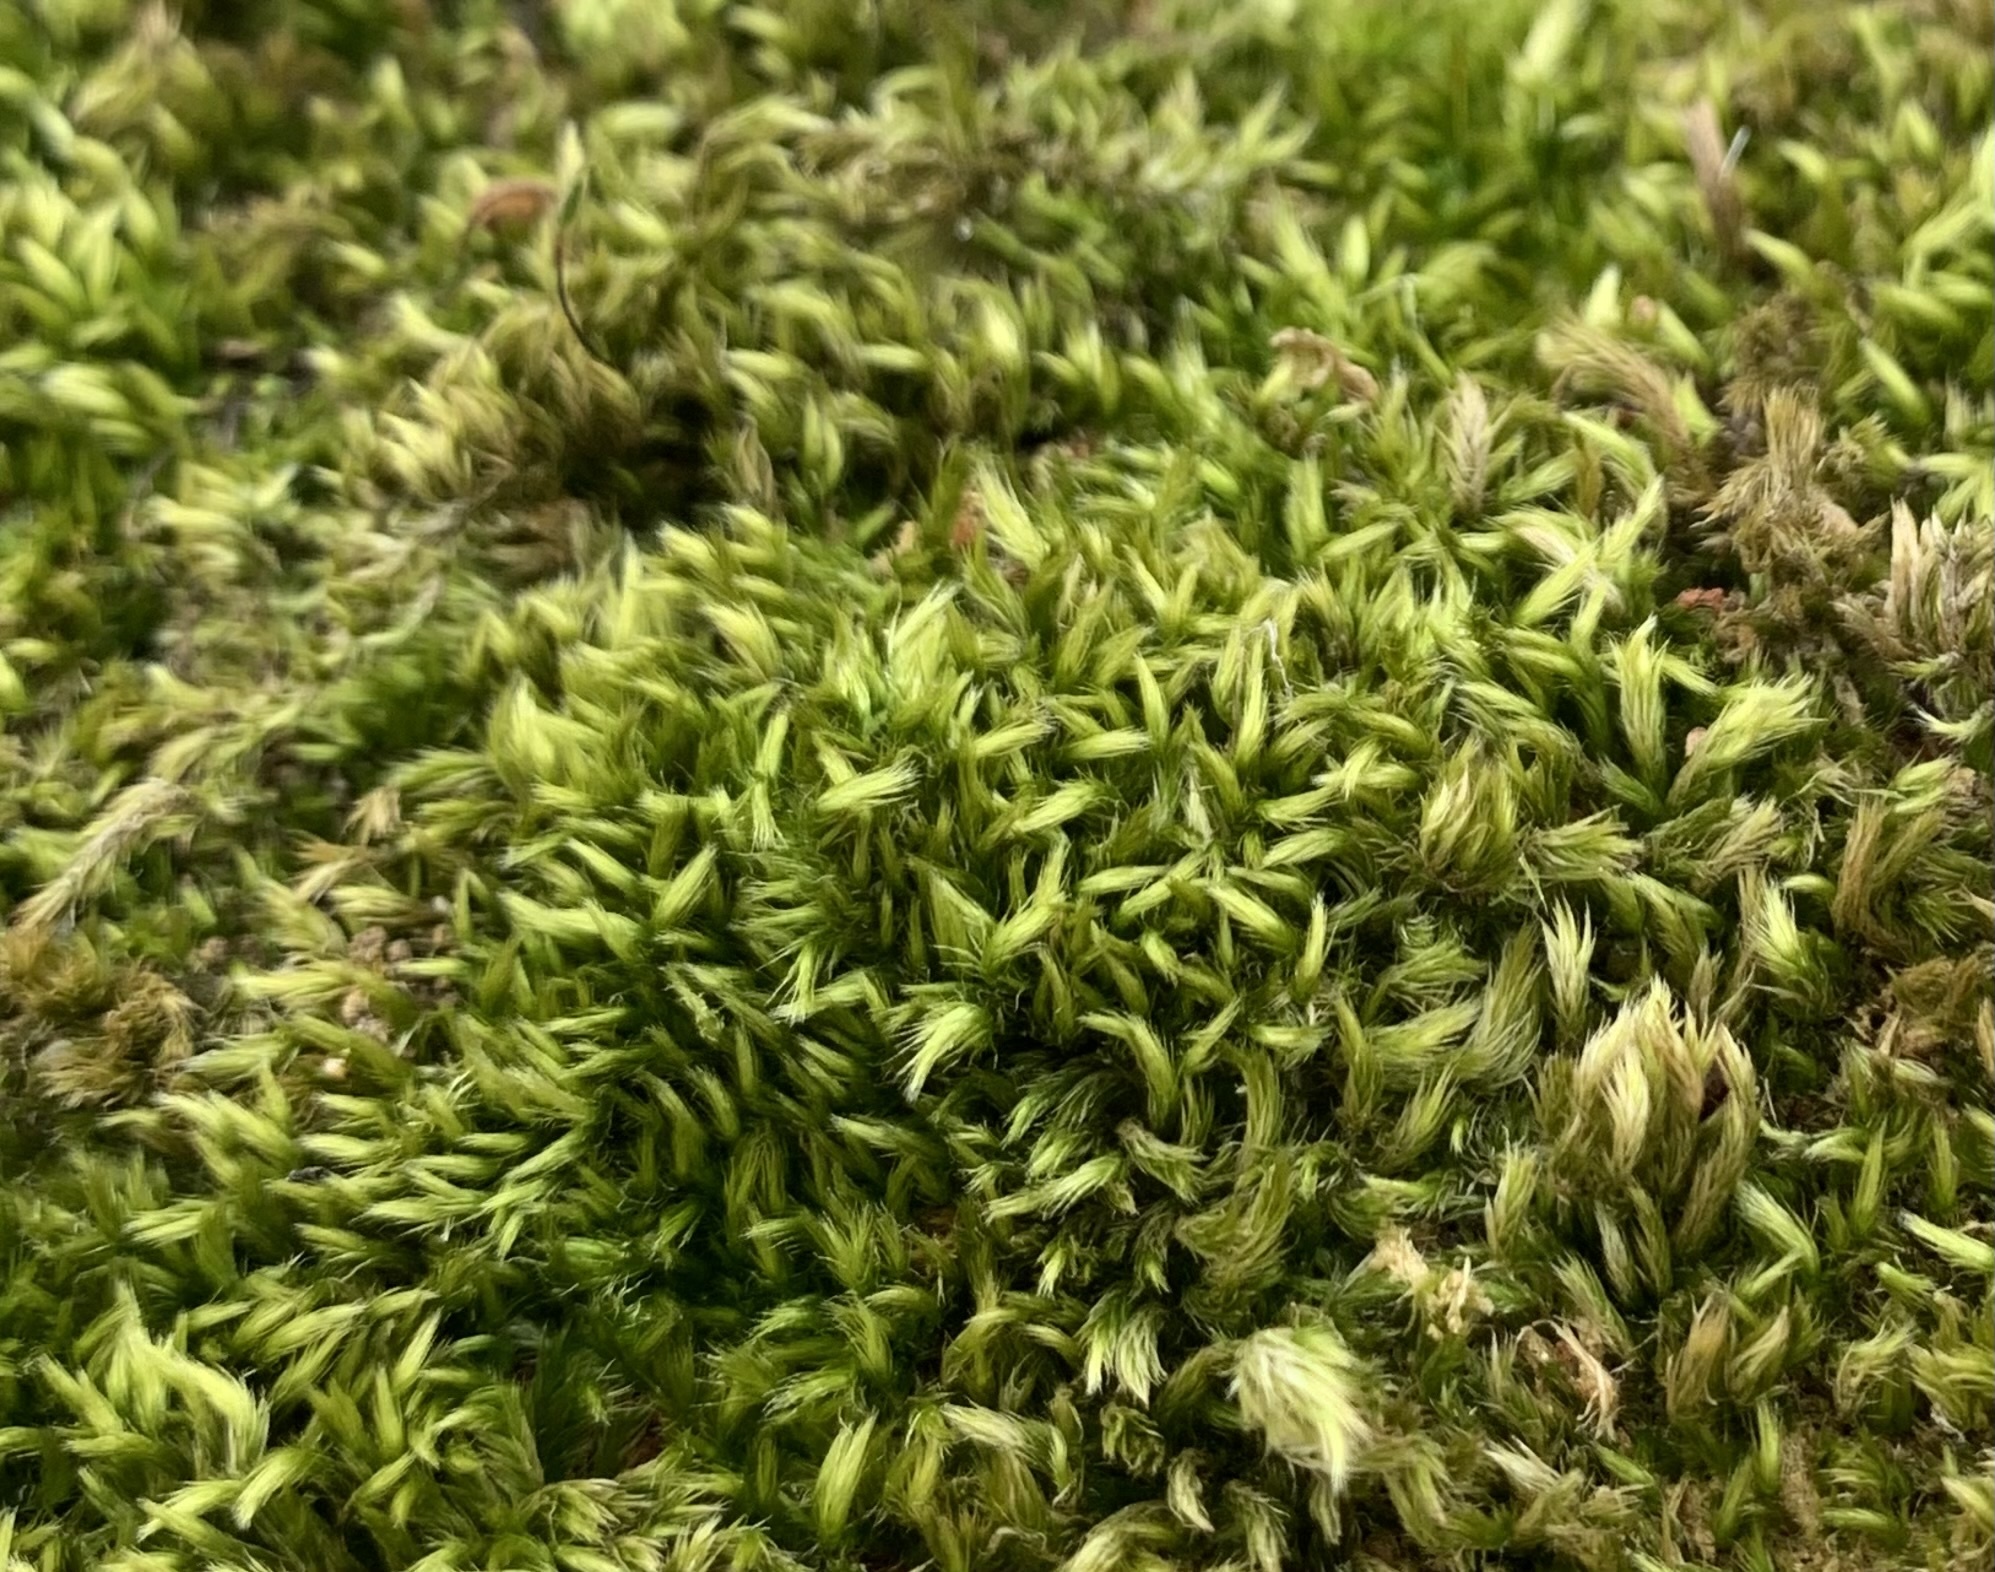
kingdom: Plantae
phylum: Bryophyta
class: Bryopsida
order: Hypnales
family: Brachytheciaceae
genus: Homalothecium
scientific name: Homalothecium sericeum
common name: Silky wall feather-moss
